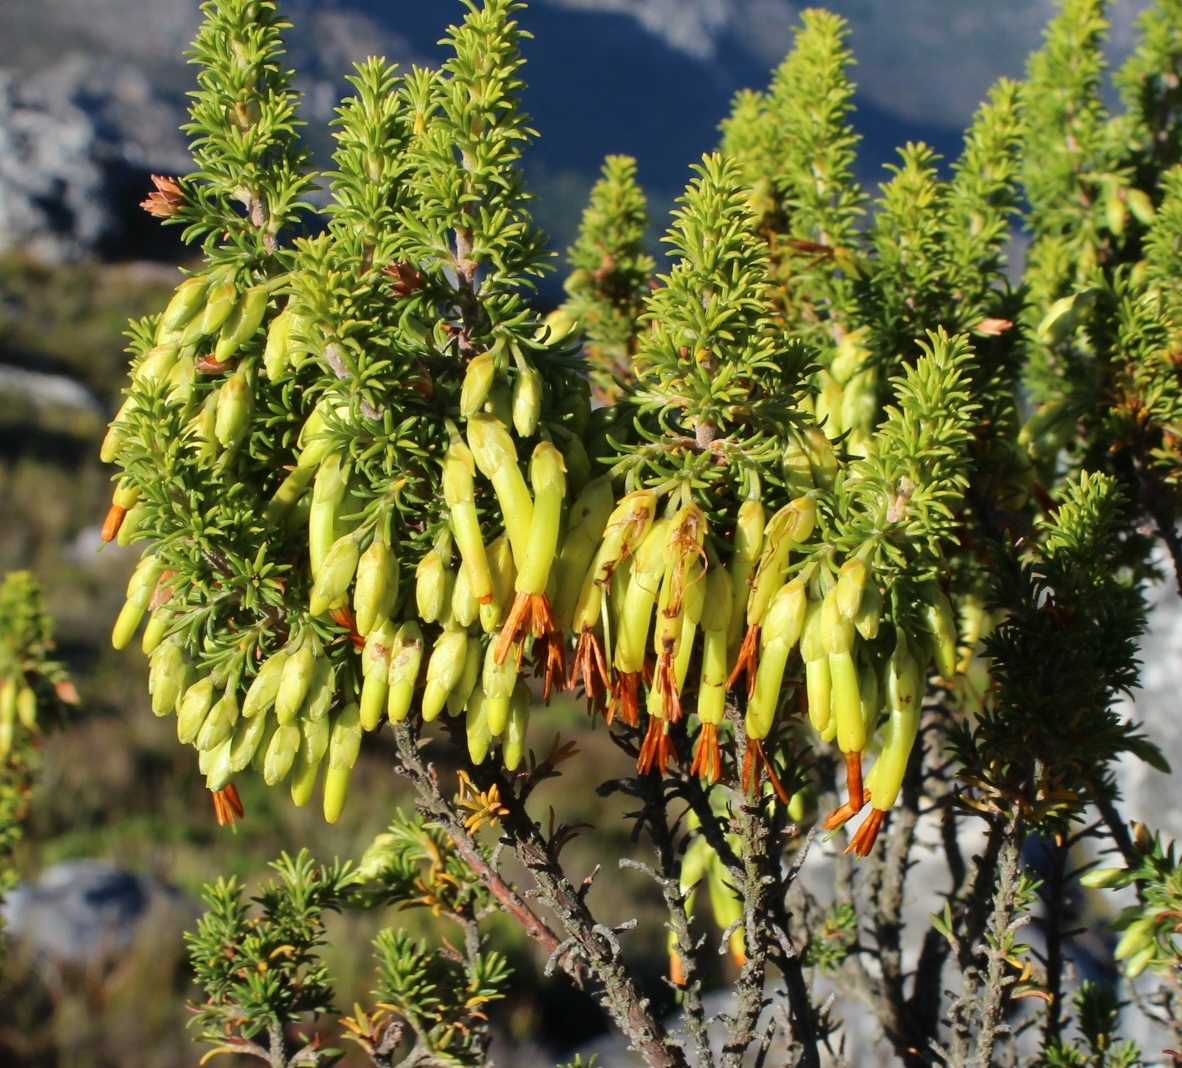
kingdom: Plantae
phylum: Tracheophyta
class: Magnoliopsida
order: Ericales
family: Ericaceae
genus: Erica
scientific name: Erica coccinea
